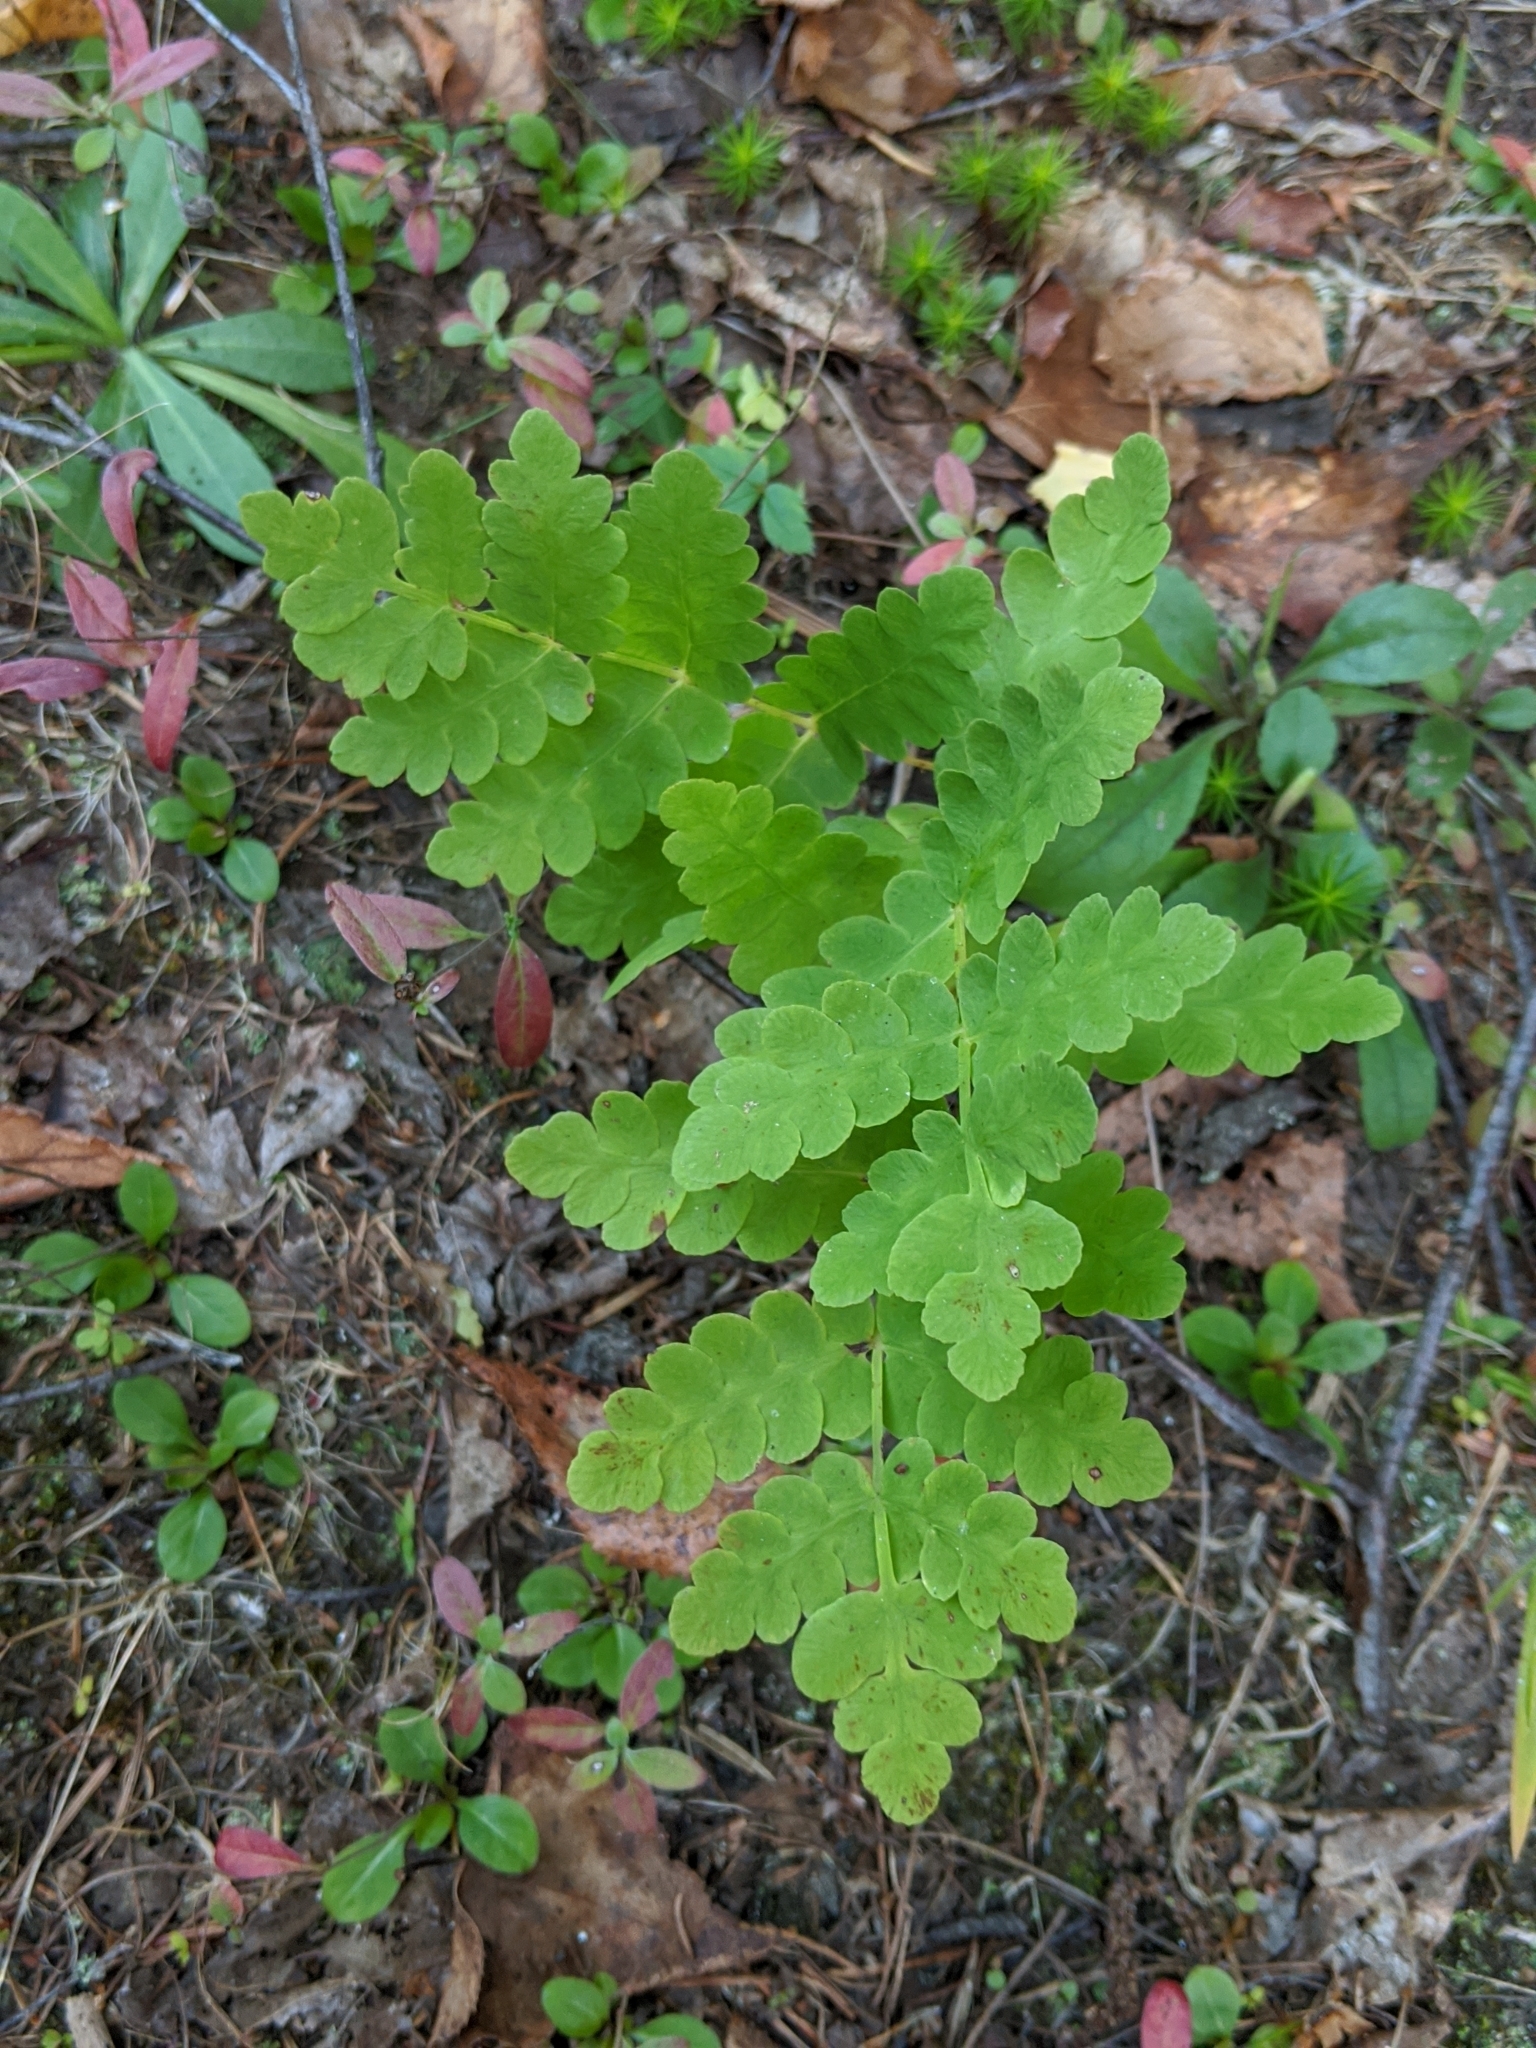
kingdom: Plantae
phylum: Tracheophyta
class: Polypodiopsida
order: Osmundales
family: Osmundaceae
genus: Claytosmunda
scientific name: Claytosmunda claytoniana
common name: Clayton's fern
